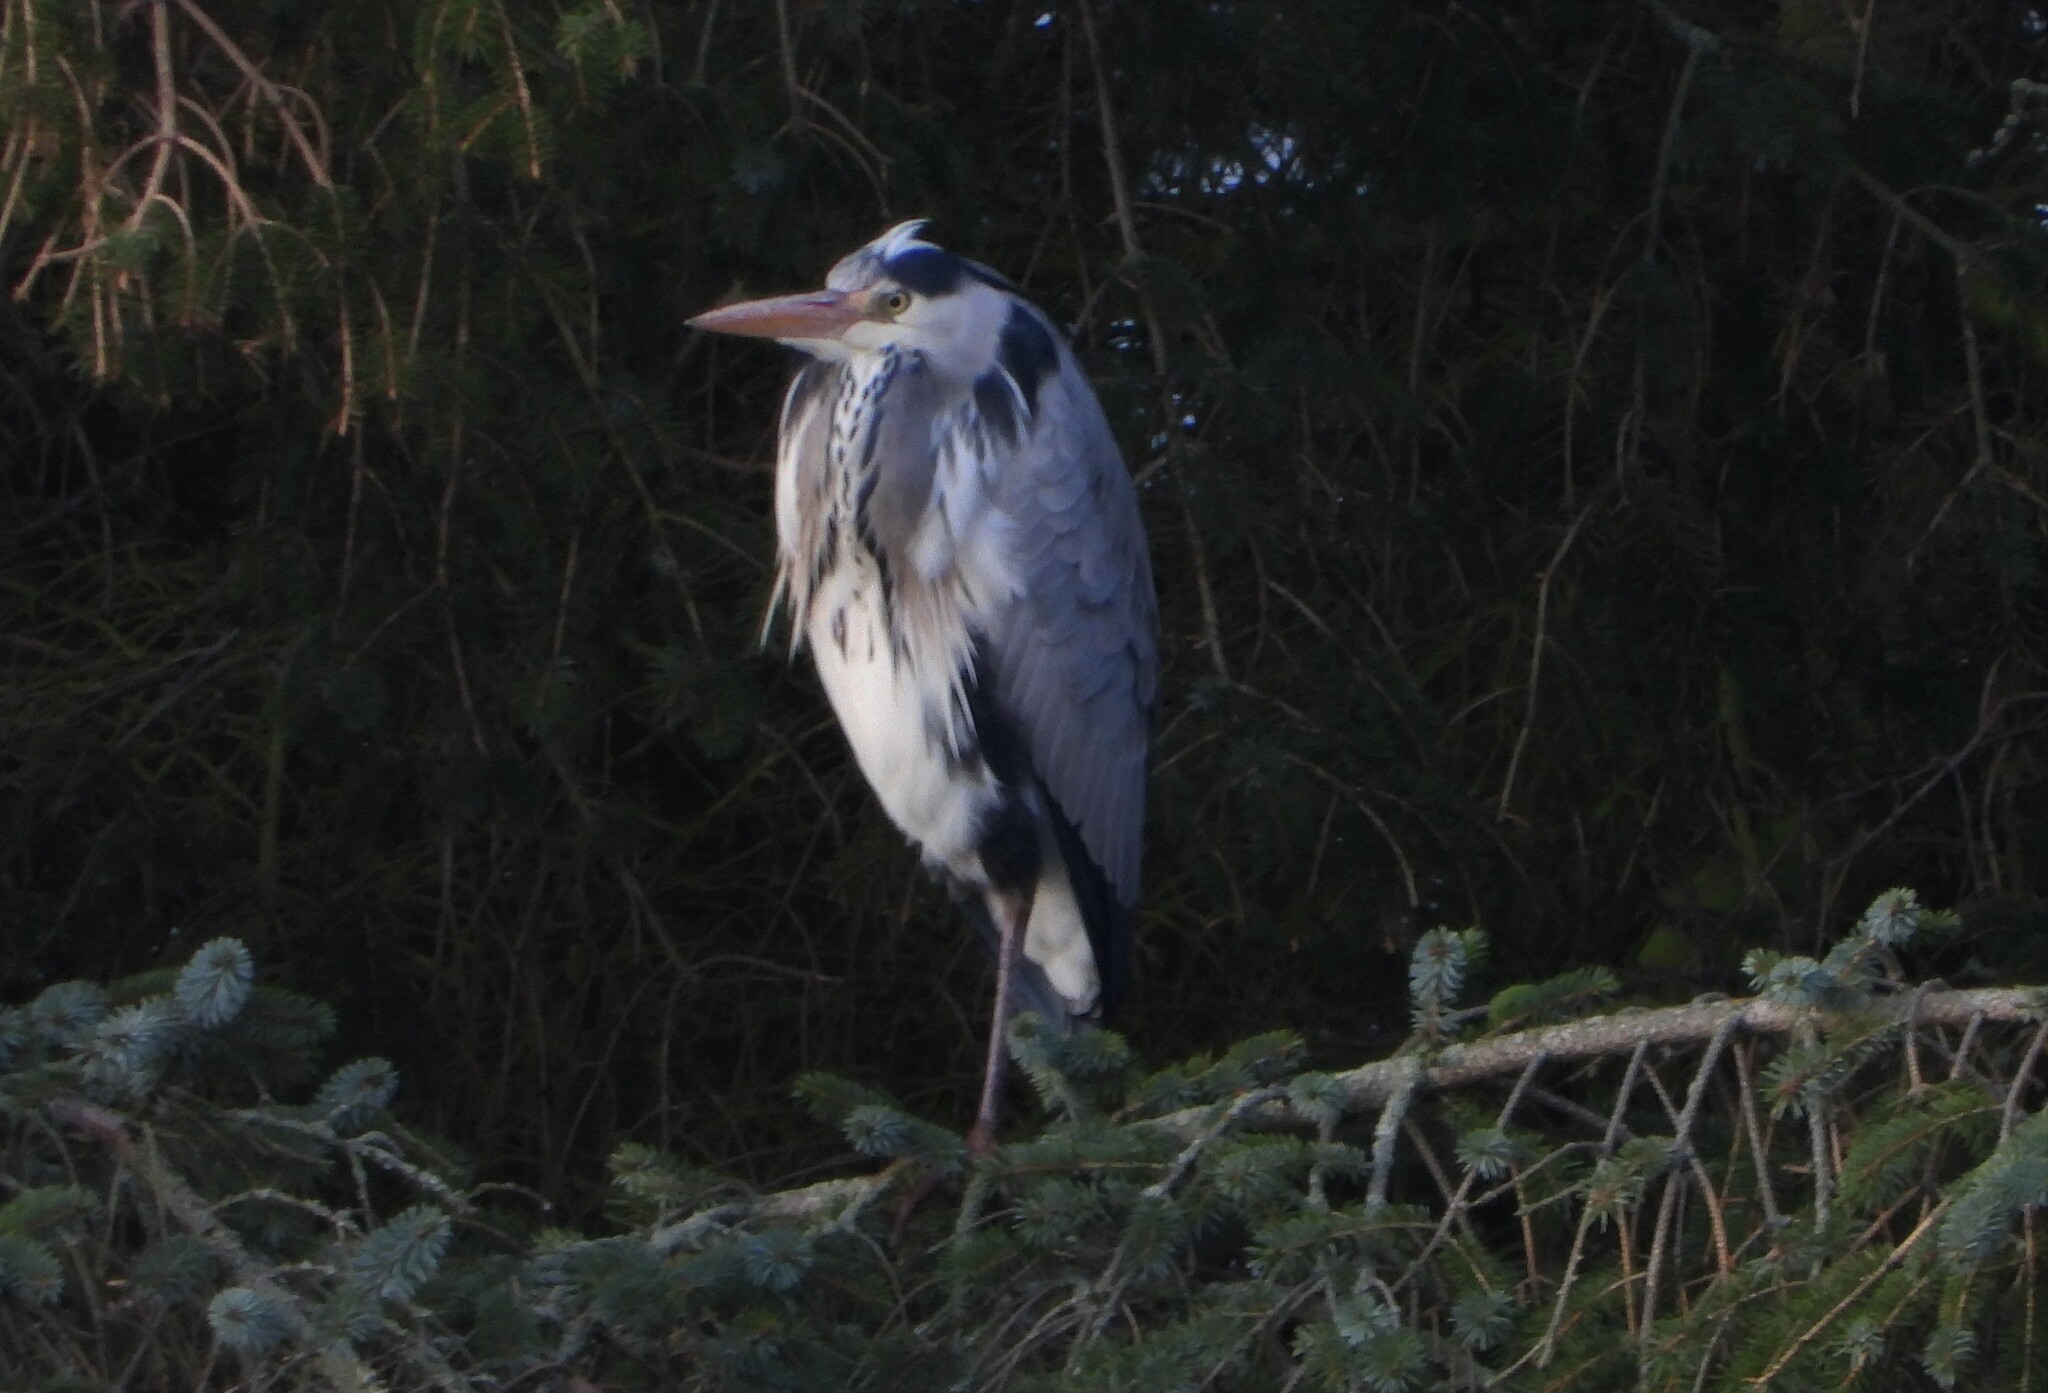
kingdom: Animalia
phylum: Chordata
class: Aves
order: Pelecaniformes
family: Ardeidae
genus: Ardea
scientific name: Ardea cinerea
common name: Grey heron
